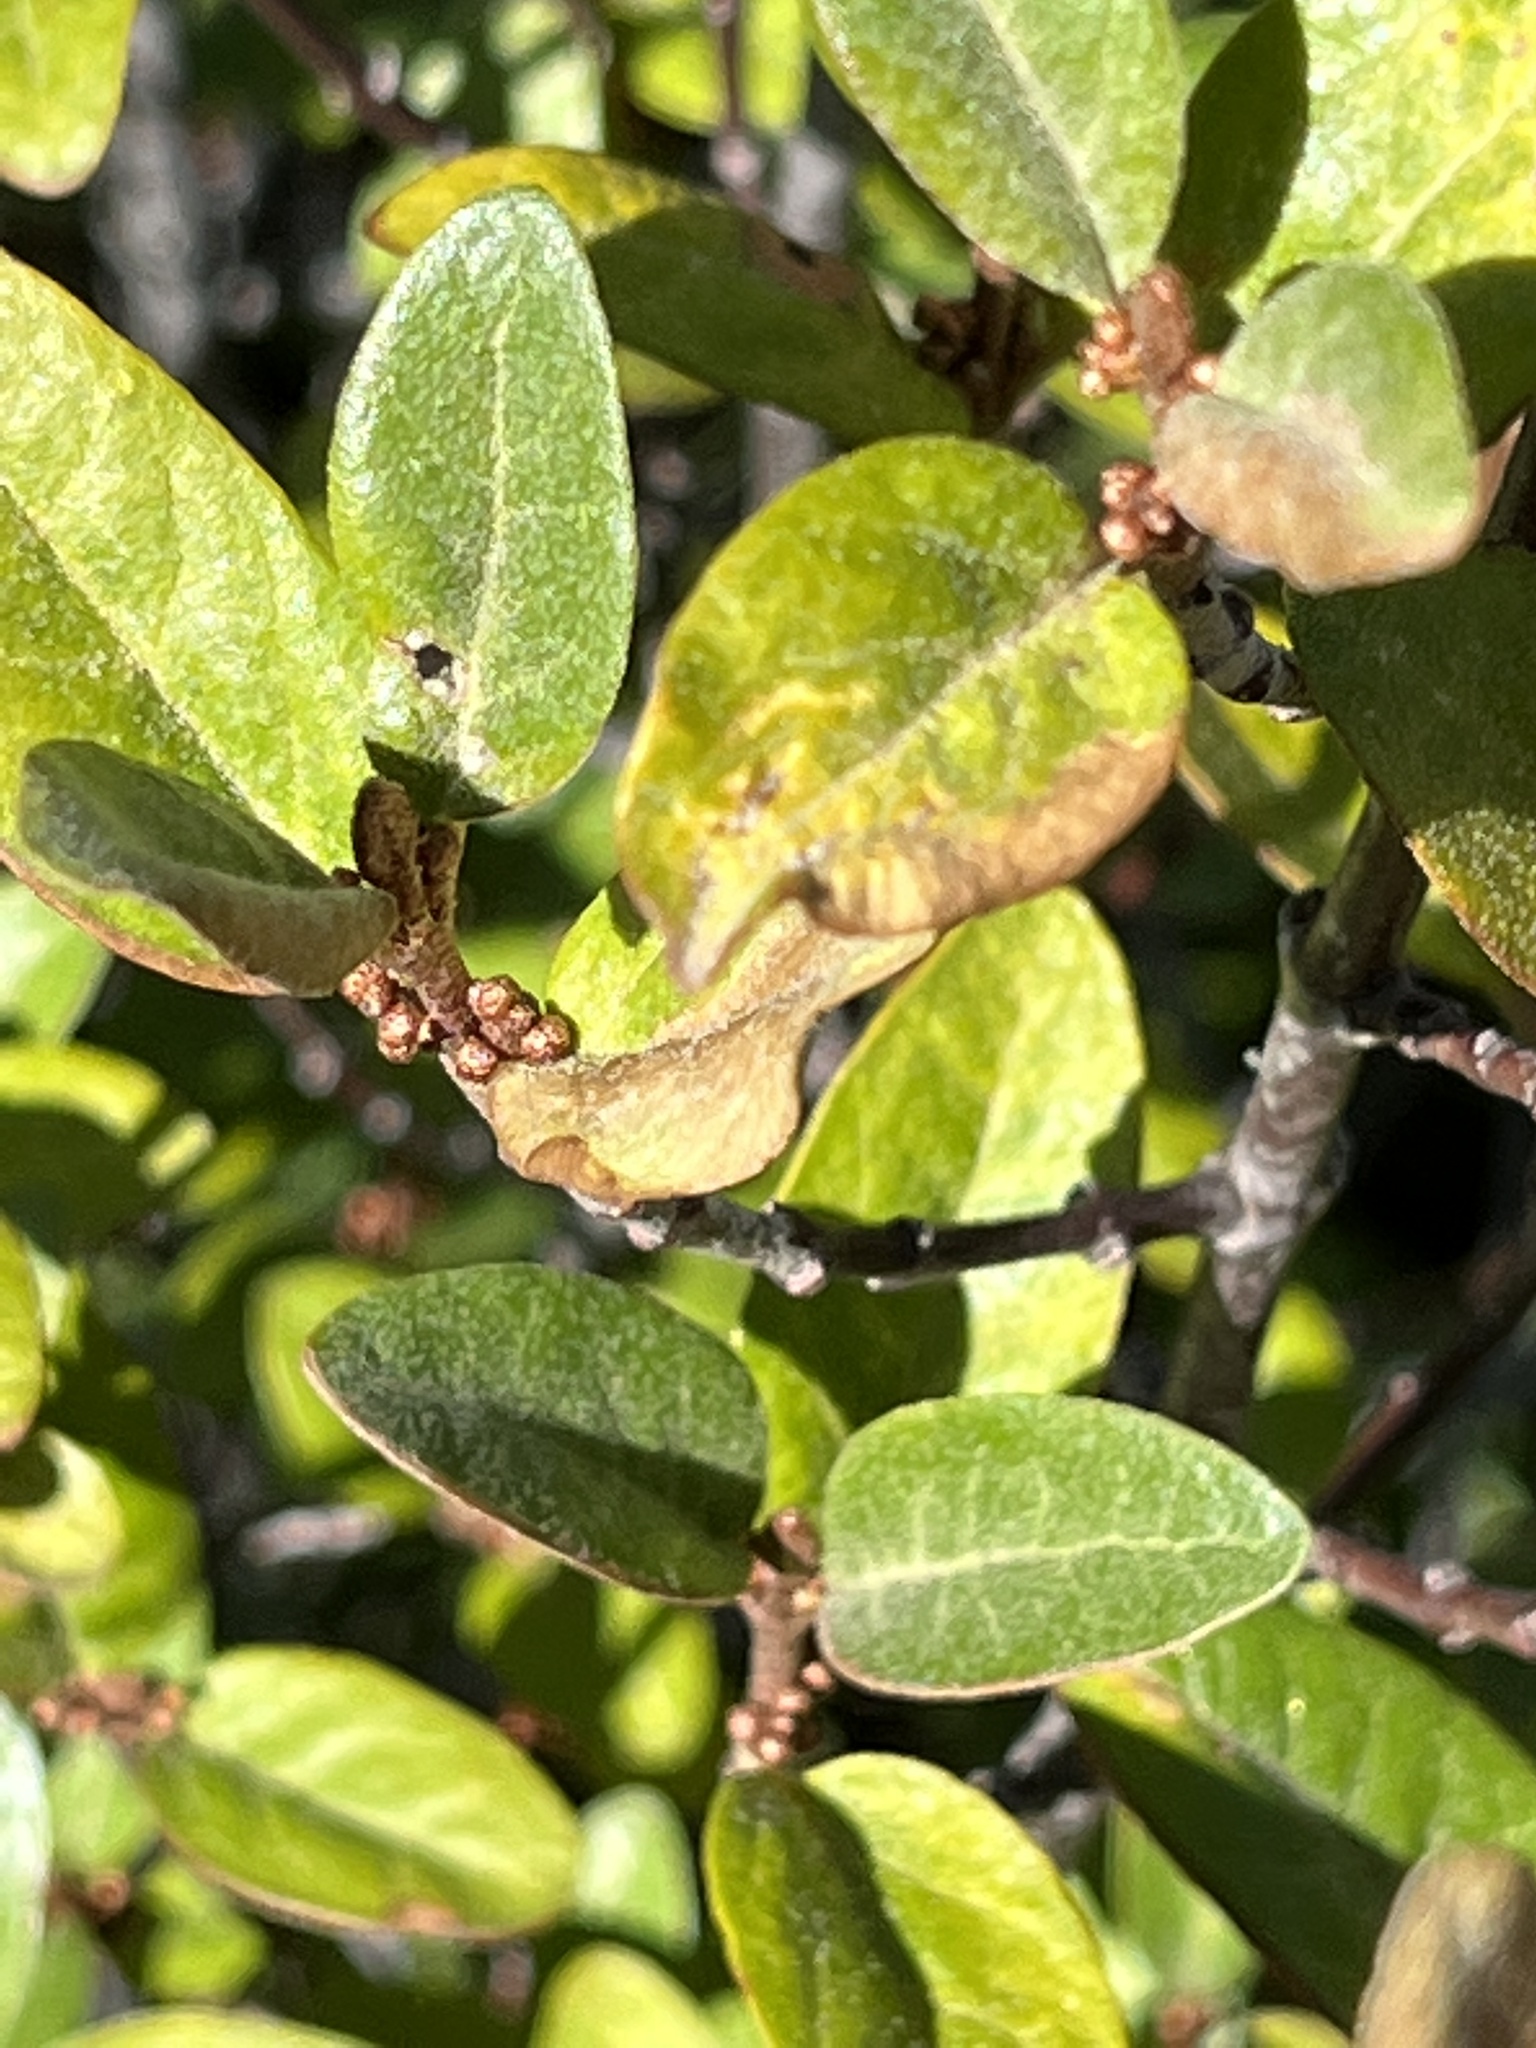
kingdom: Plantae
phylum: Tracheophyta
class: Magnoliopsida
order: Rosales
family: Elaeagnaceae
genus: Shepherdia
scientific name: Shepherdia canadensis
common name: Soapberry
